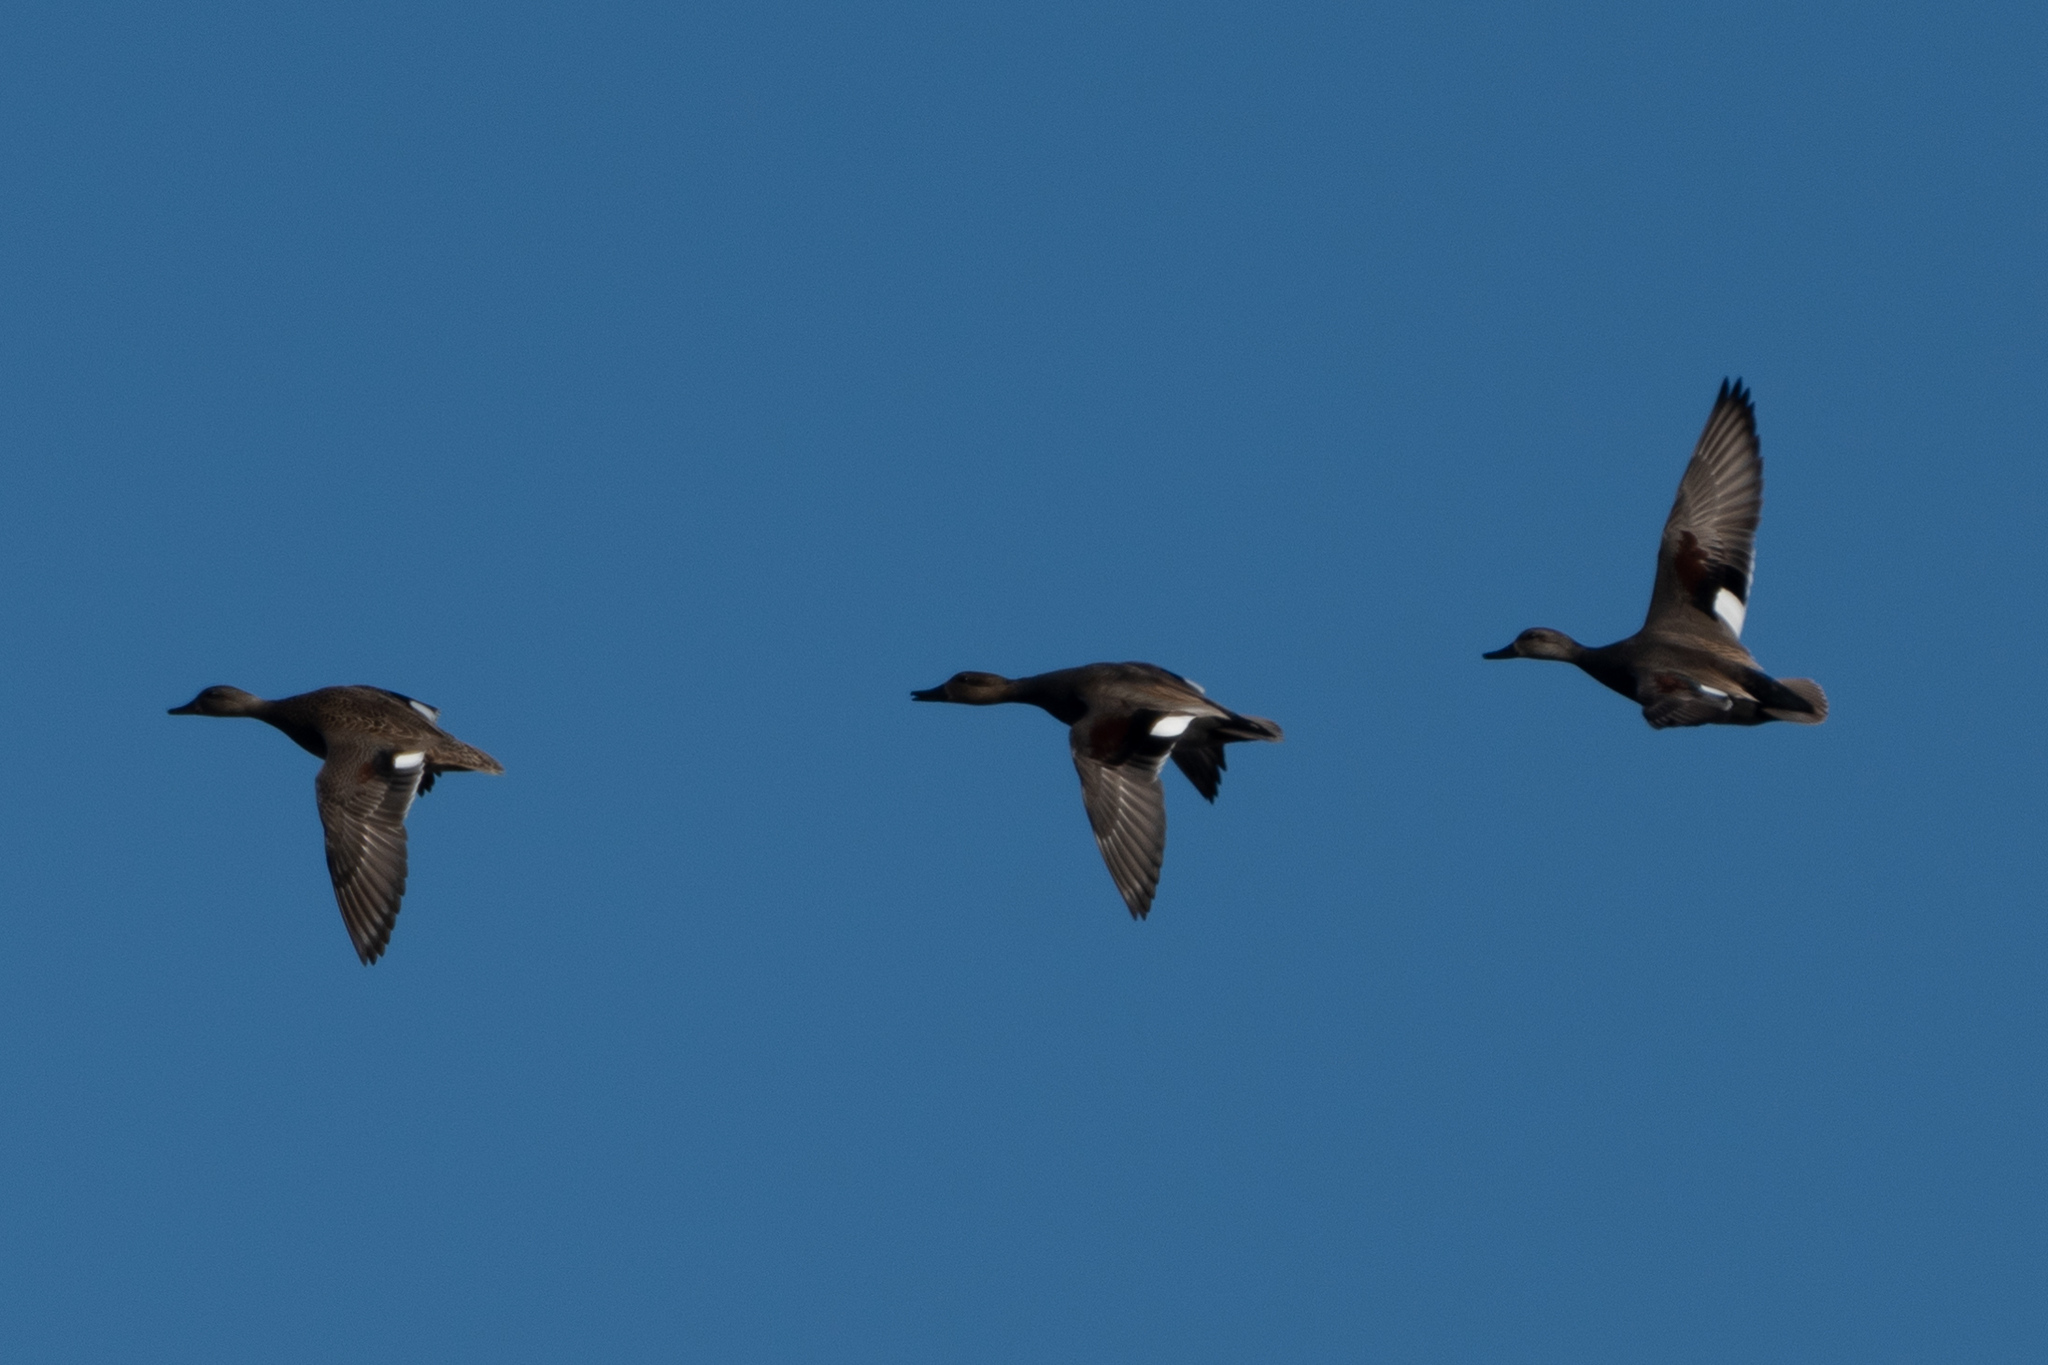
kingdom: Animalia
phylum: Chordata
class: Aves
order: Anseriformes
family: Anatidae
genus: Mareca
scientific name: Mareca strepera
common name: Gadwall
